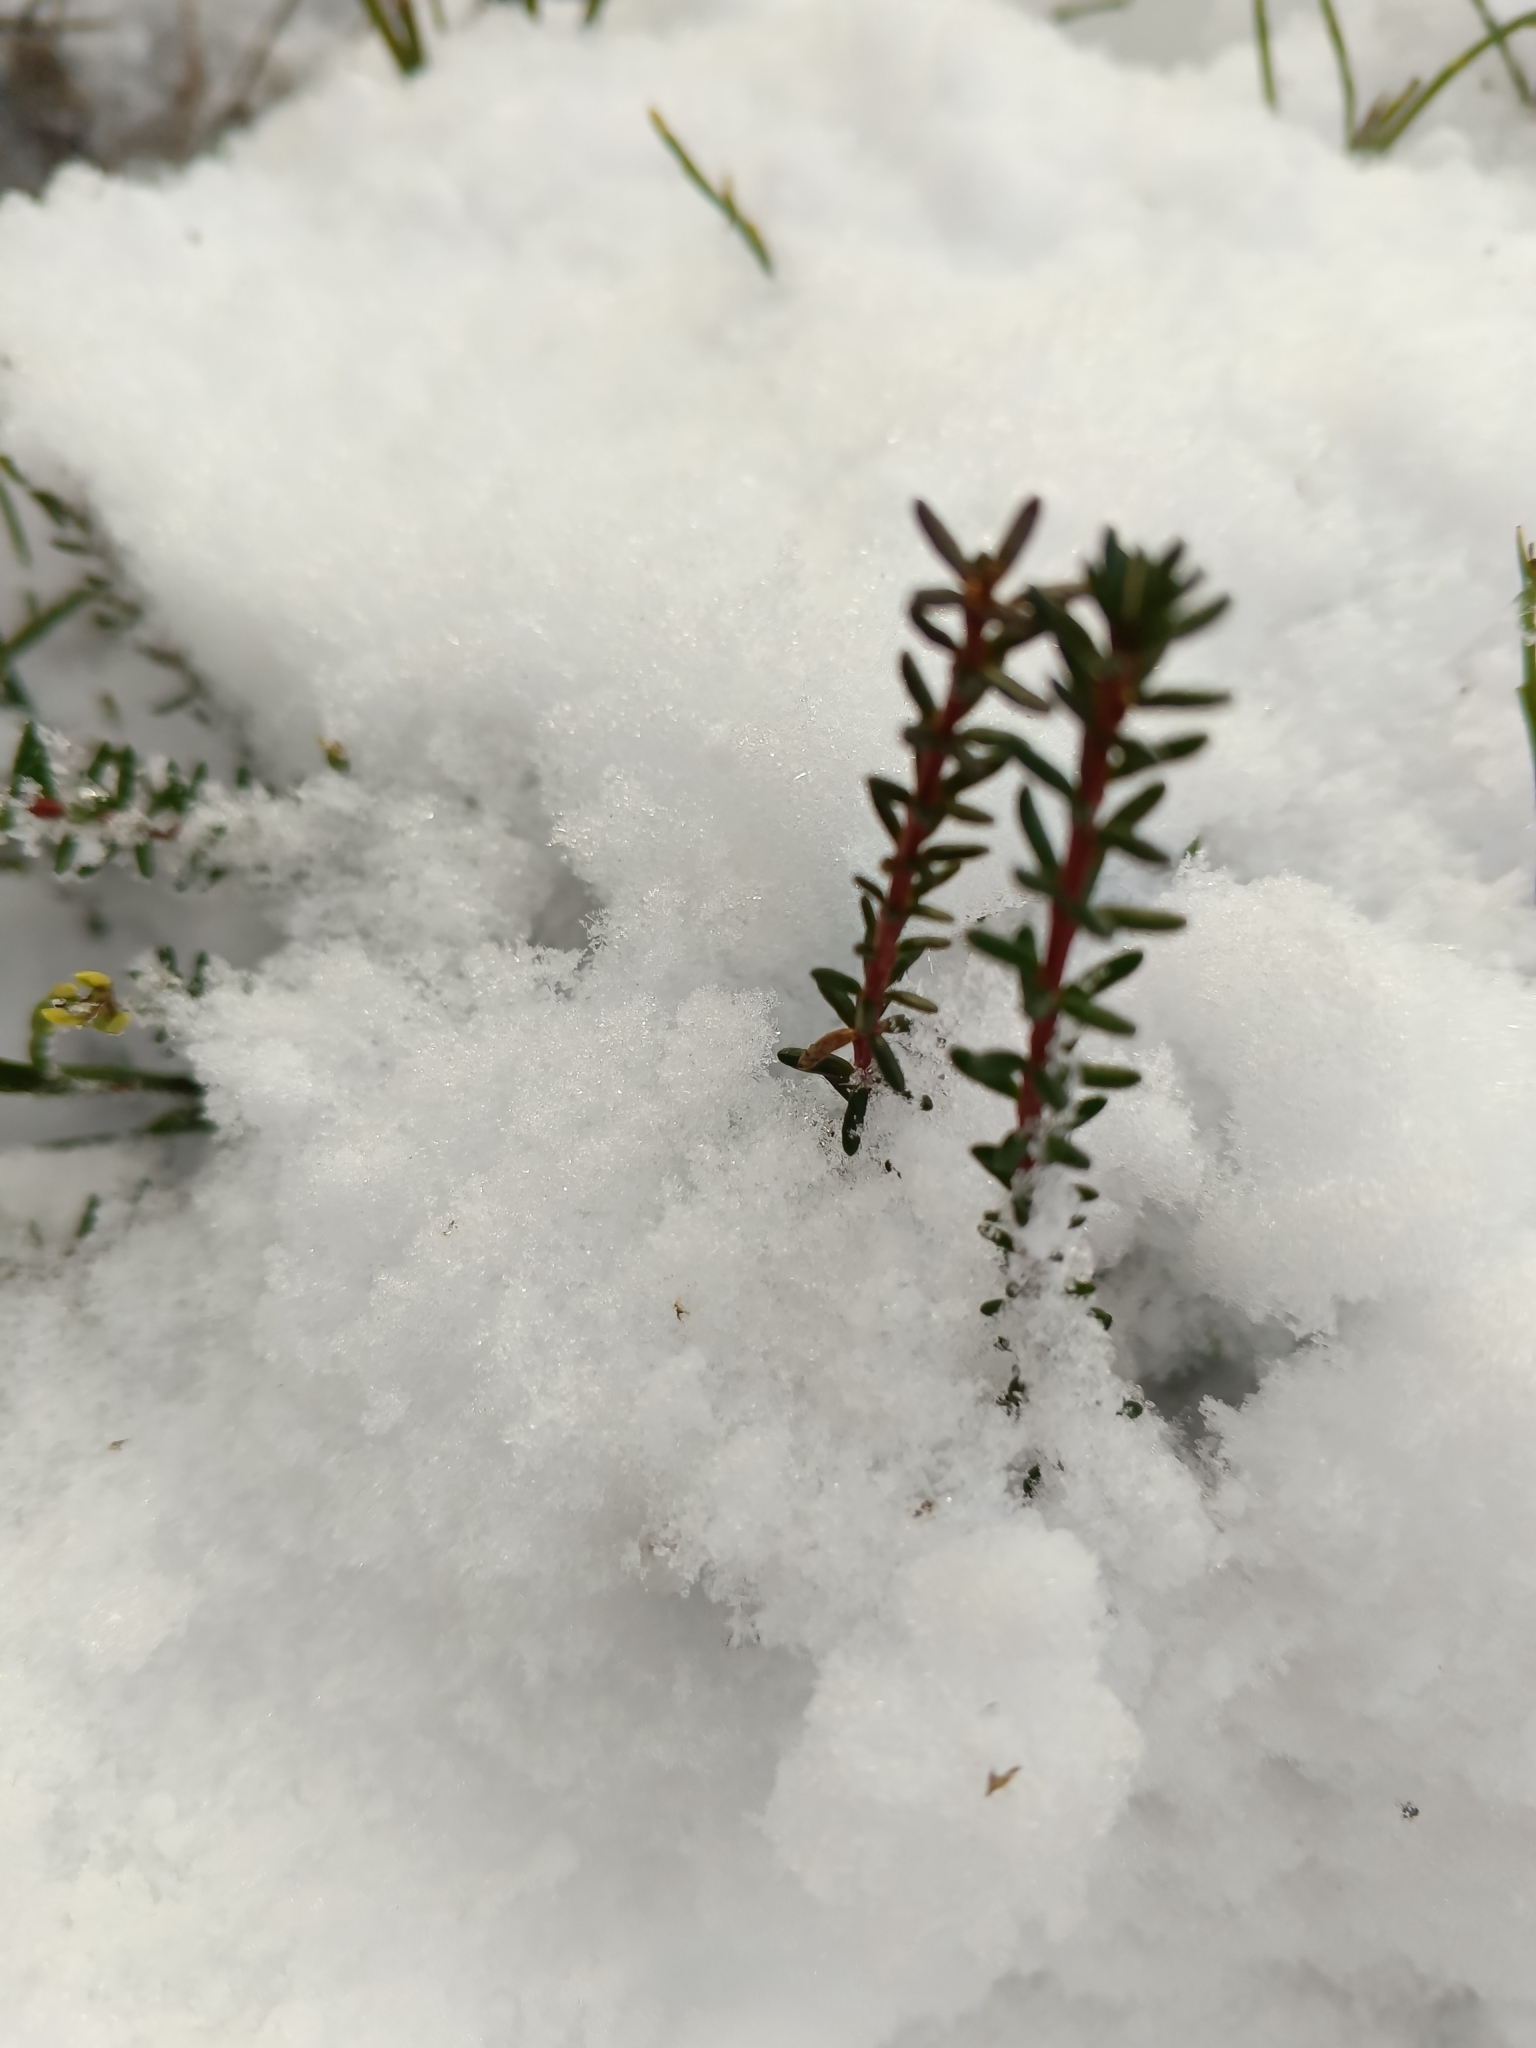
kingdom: Plantae
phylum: Tracheophyta
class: Magnoliopsida
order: Ericales
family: Ericaceae
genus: Empetrum
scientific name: Empetrum nigrum
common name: Black crowberry
